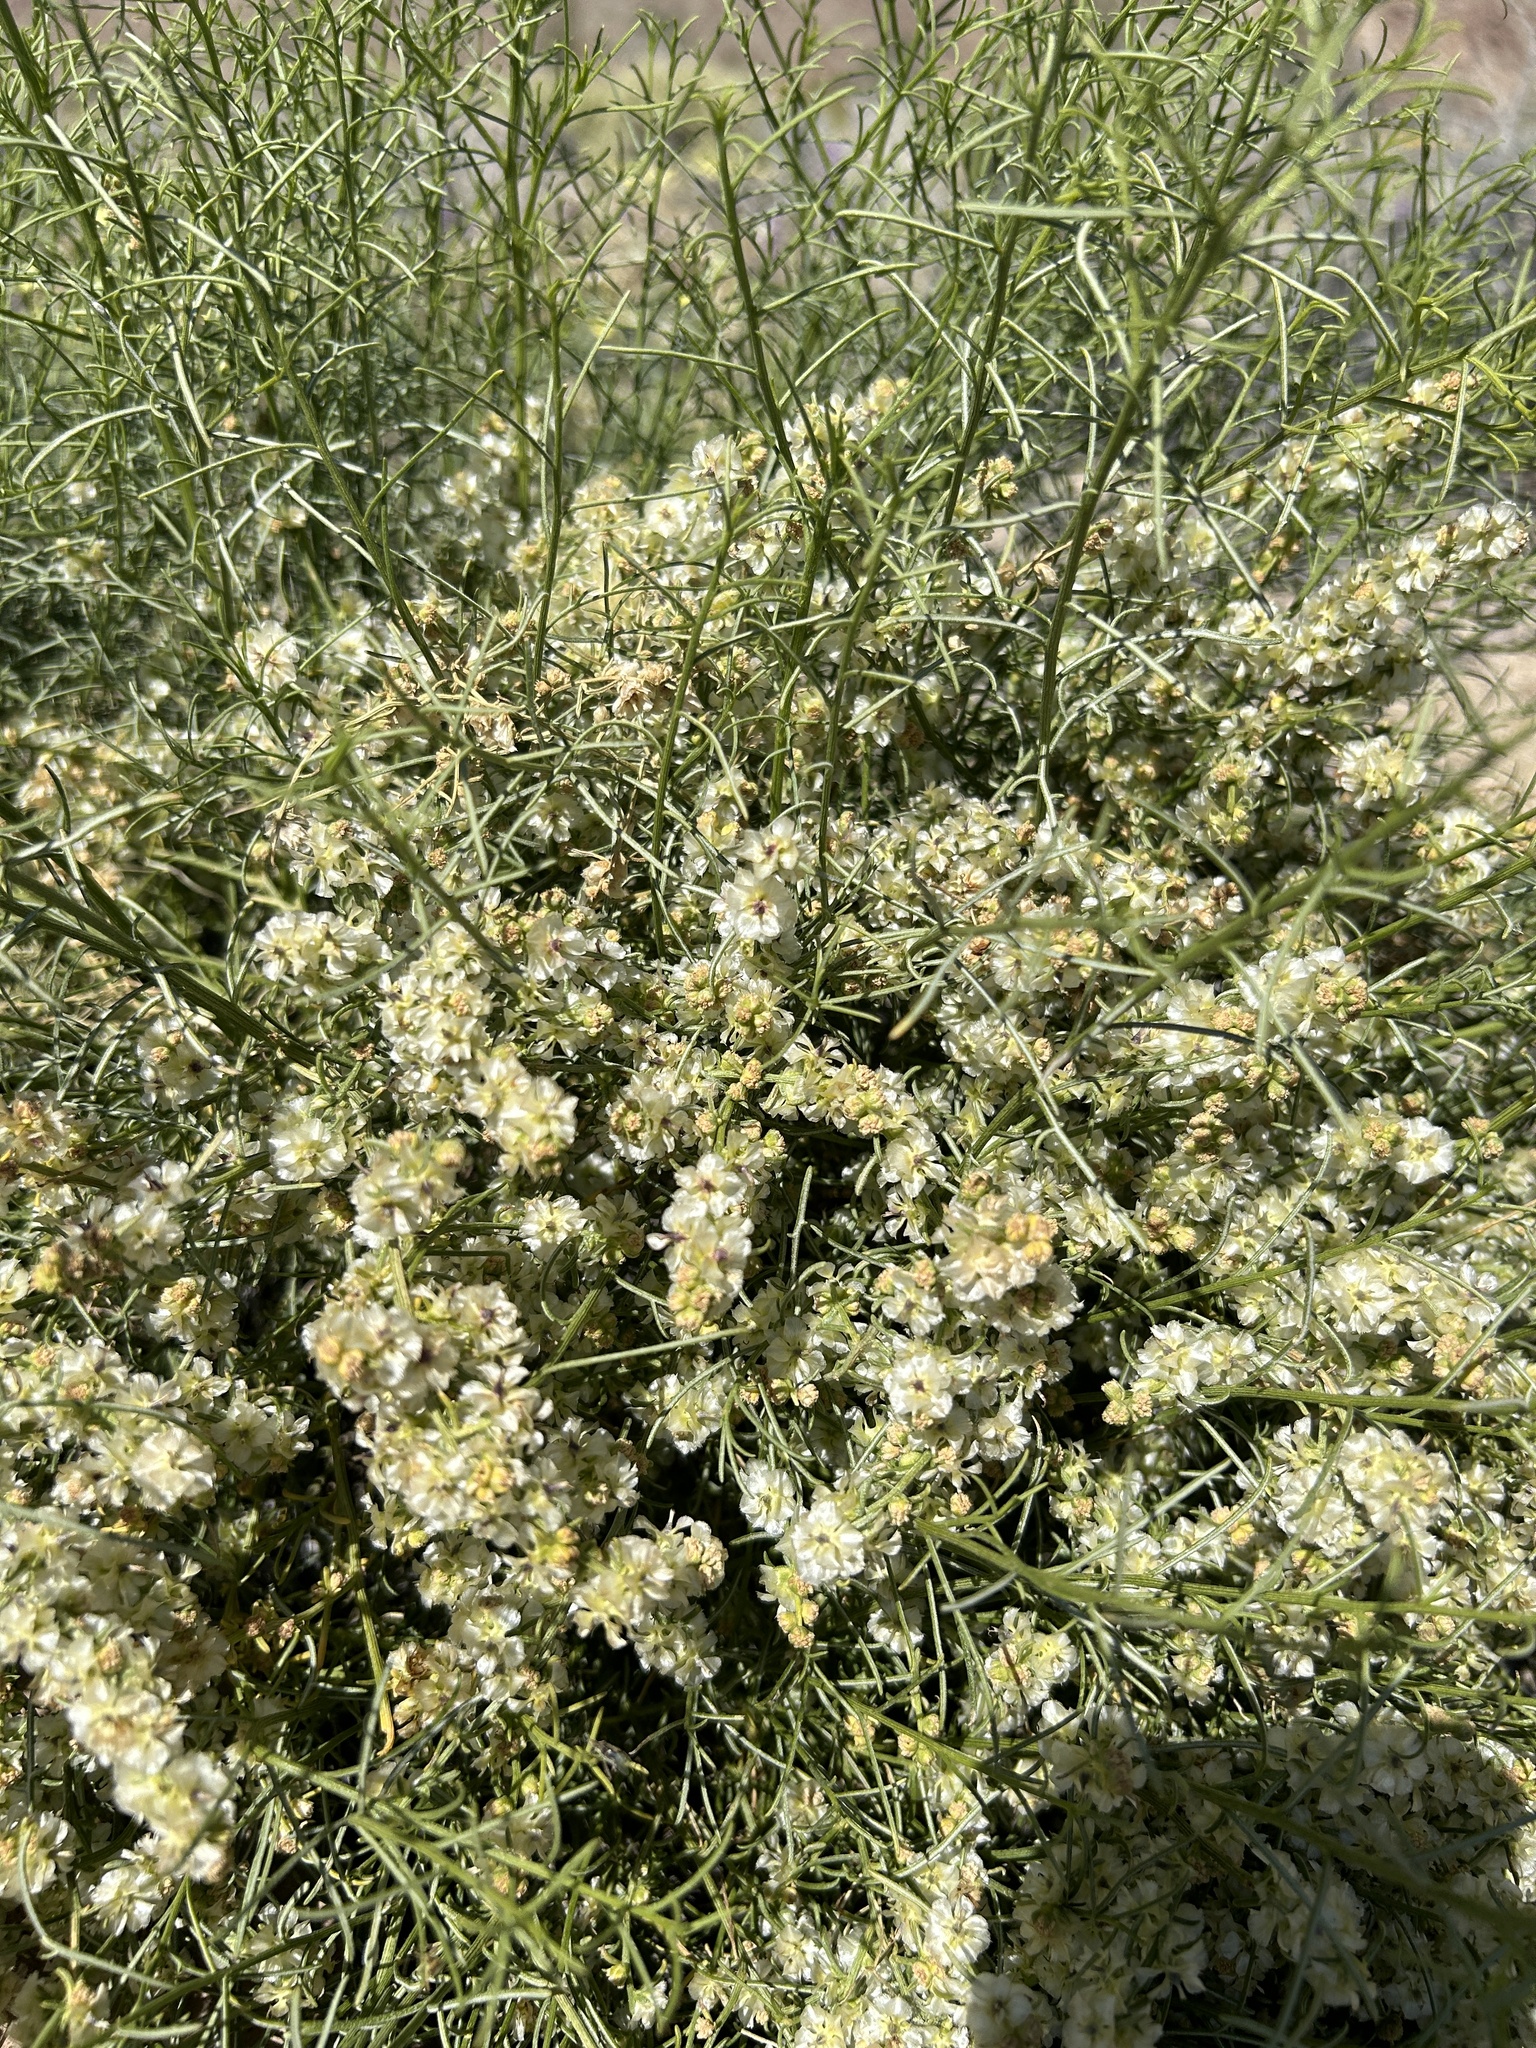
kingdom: Plantae
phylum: Tracheophyta
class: Magnoliopsida
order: Asterales
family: Asteraceae
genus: Ambrosia
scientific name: Ambrosia salsola
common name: Burrobrush
